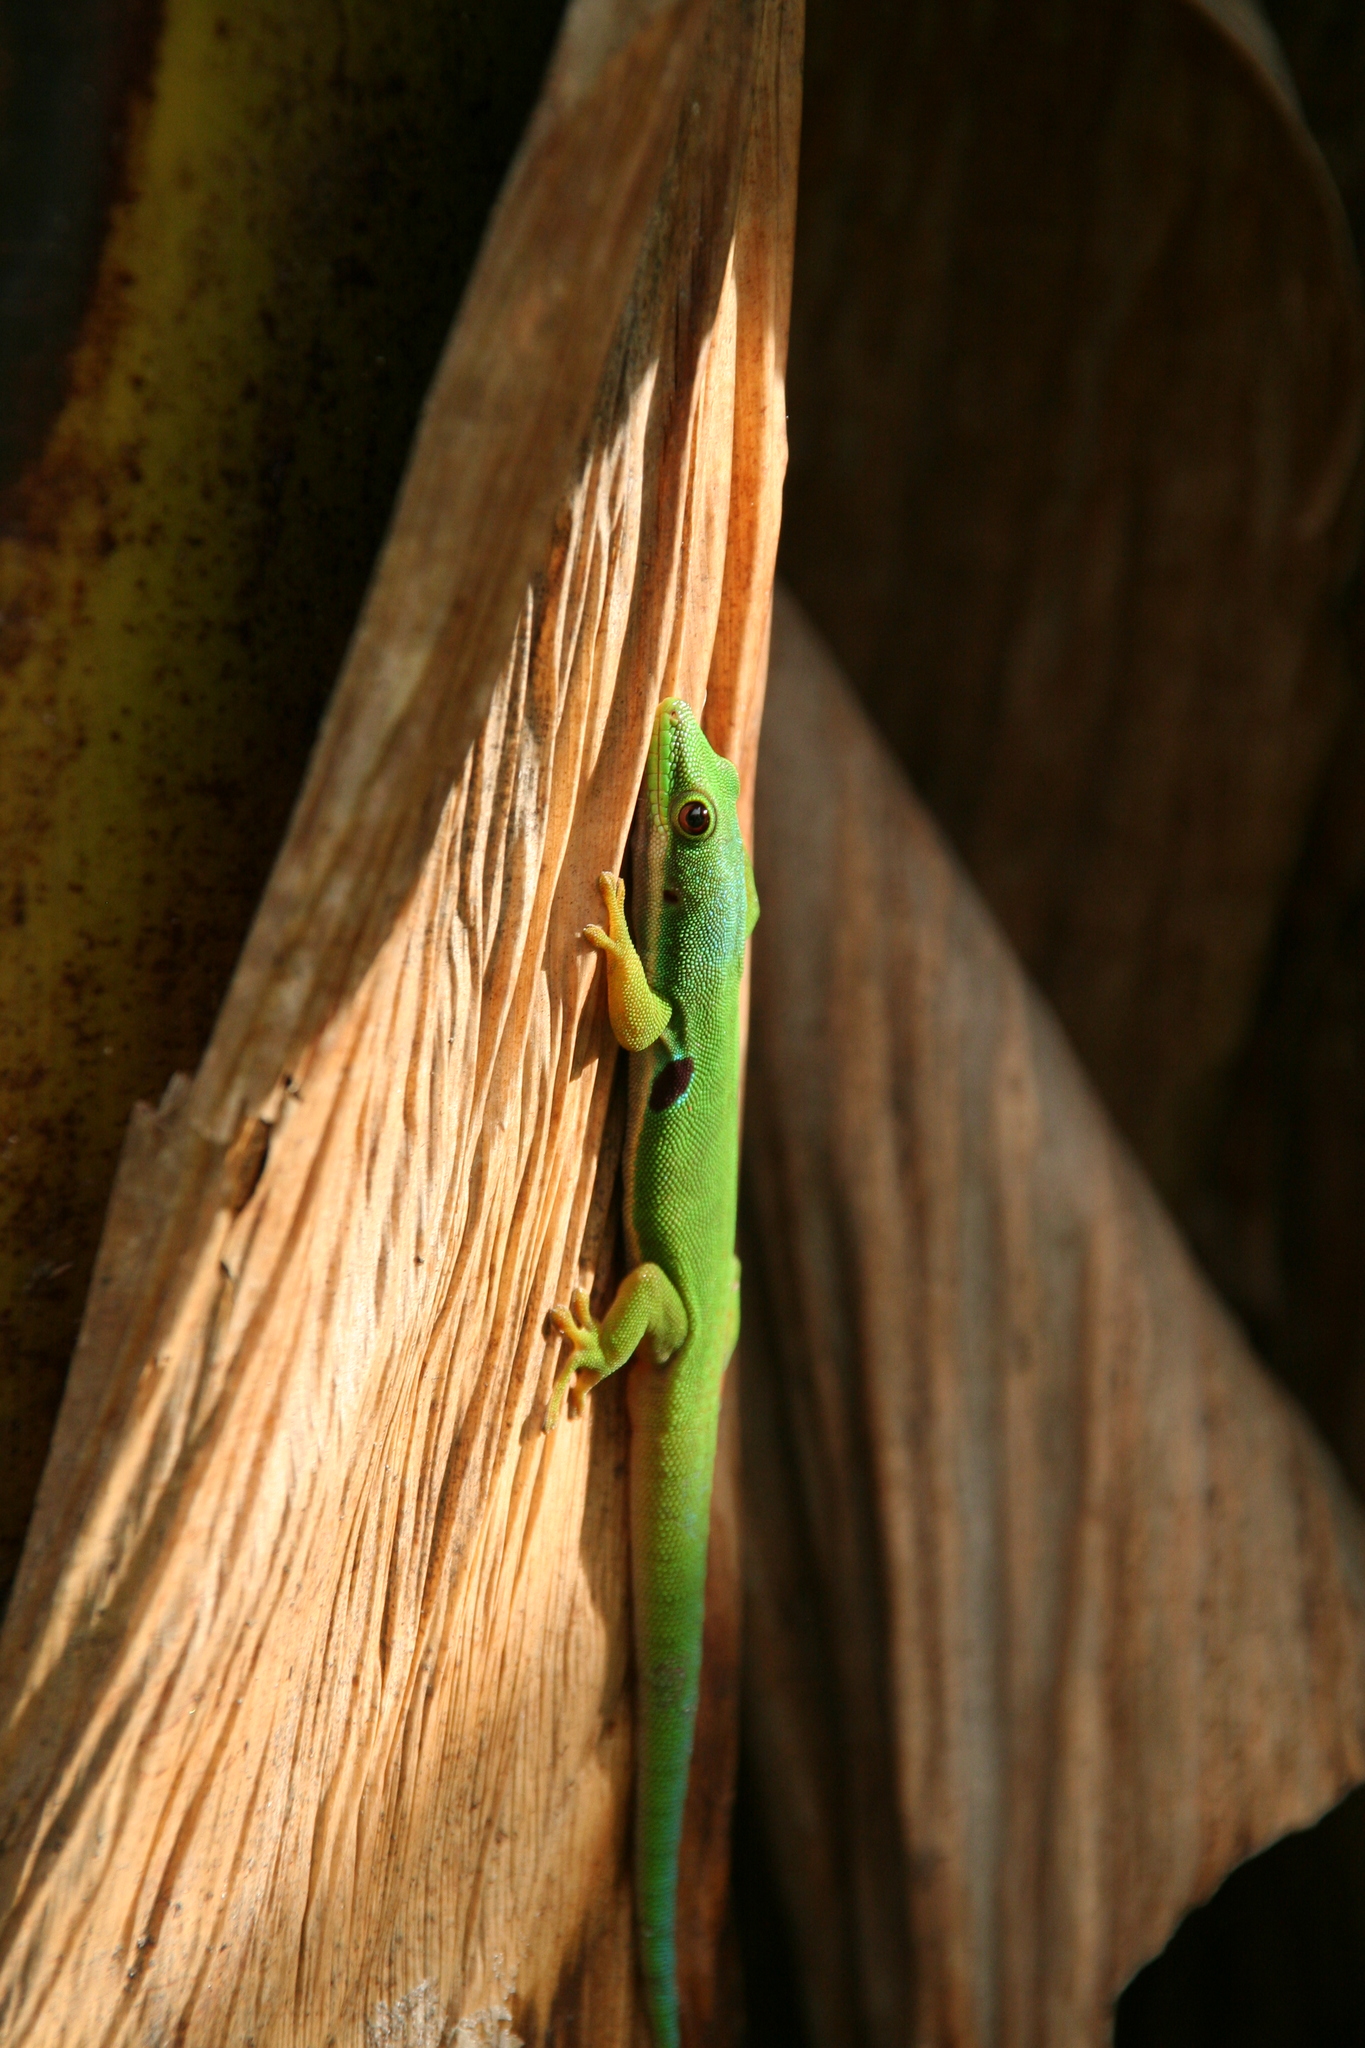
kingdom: Animalia
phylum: Chordata
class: Squamata
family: Gekkonidae
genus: Phelsuma
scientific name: Phelsuma quadriocellata
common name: Peacock day gecko
